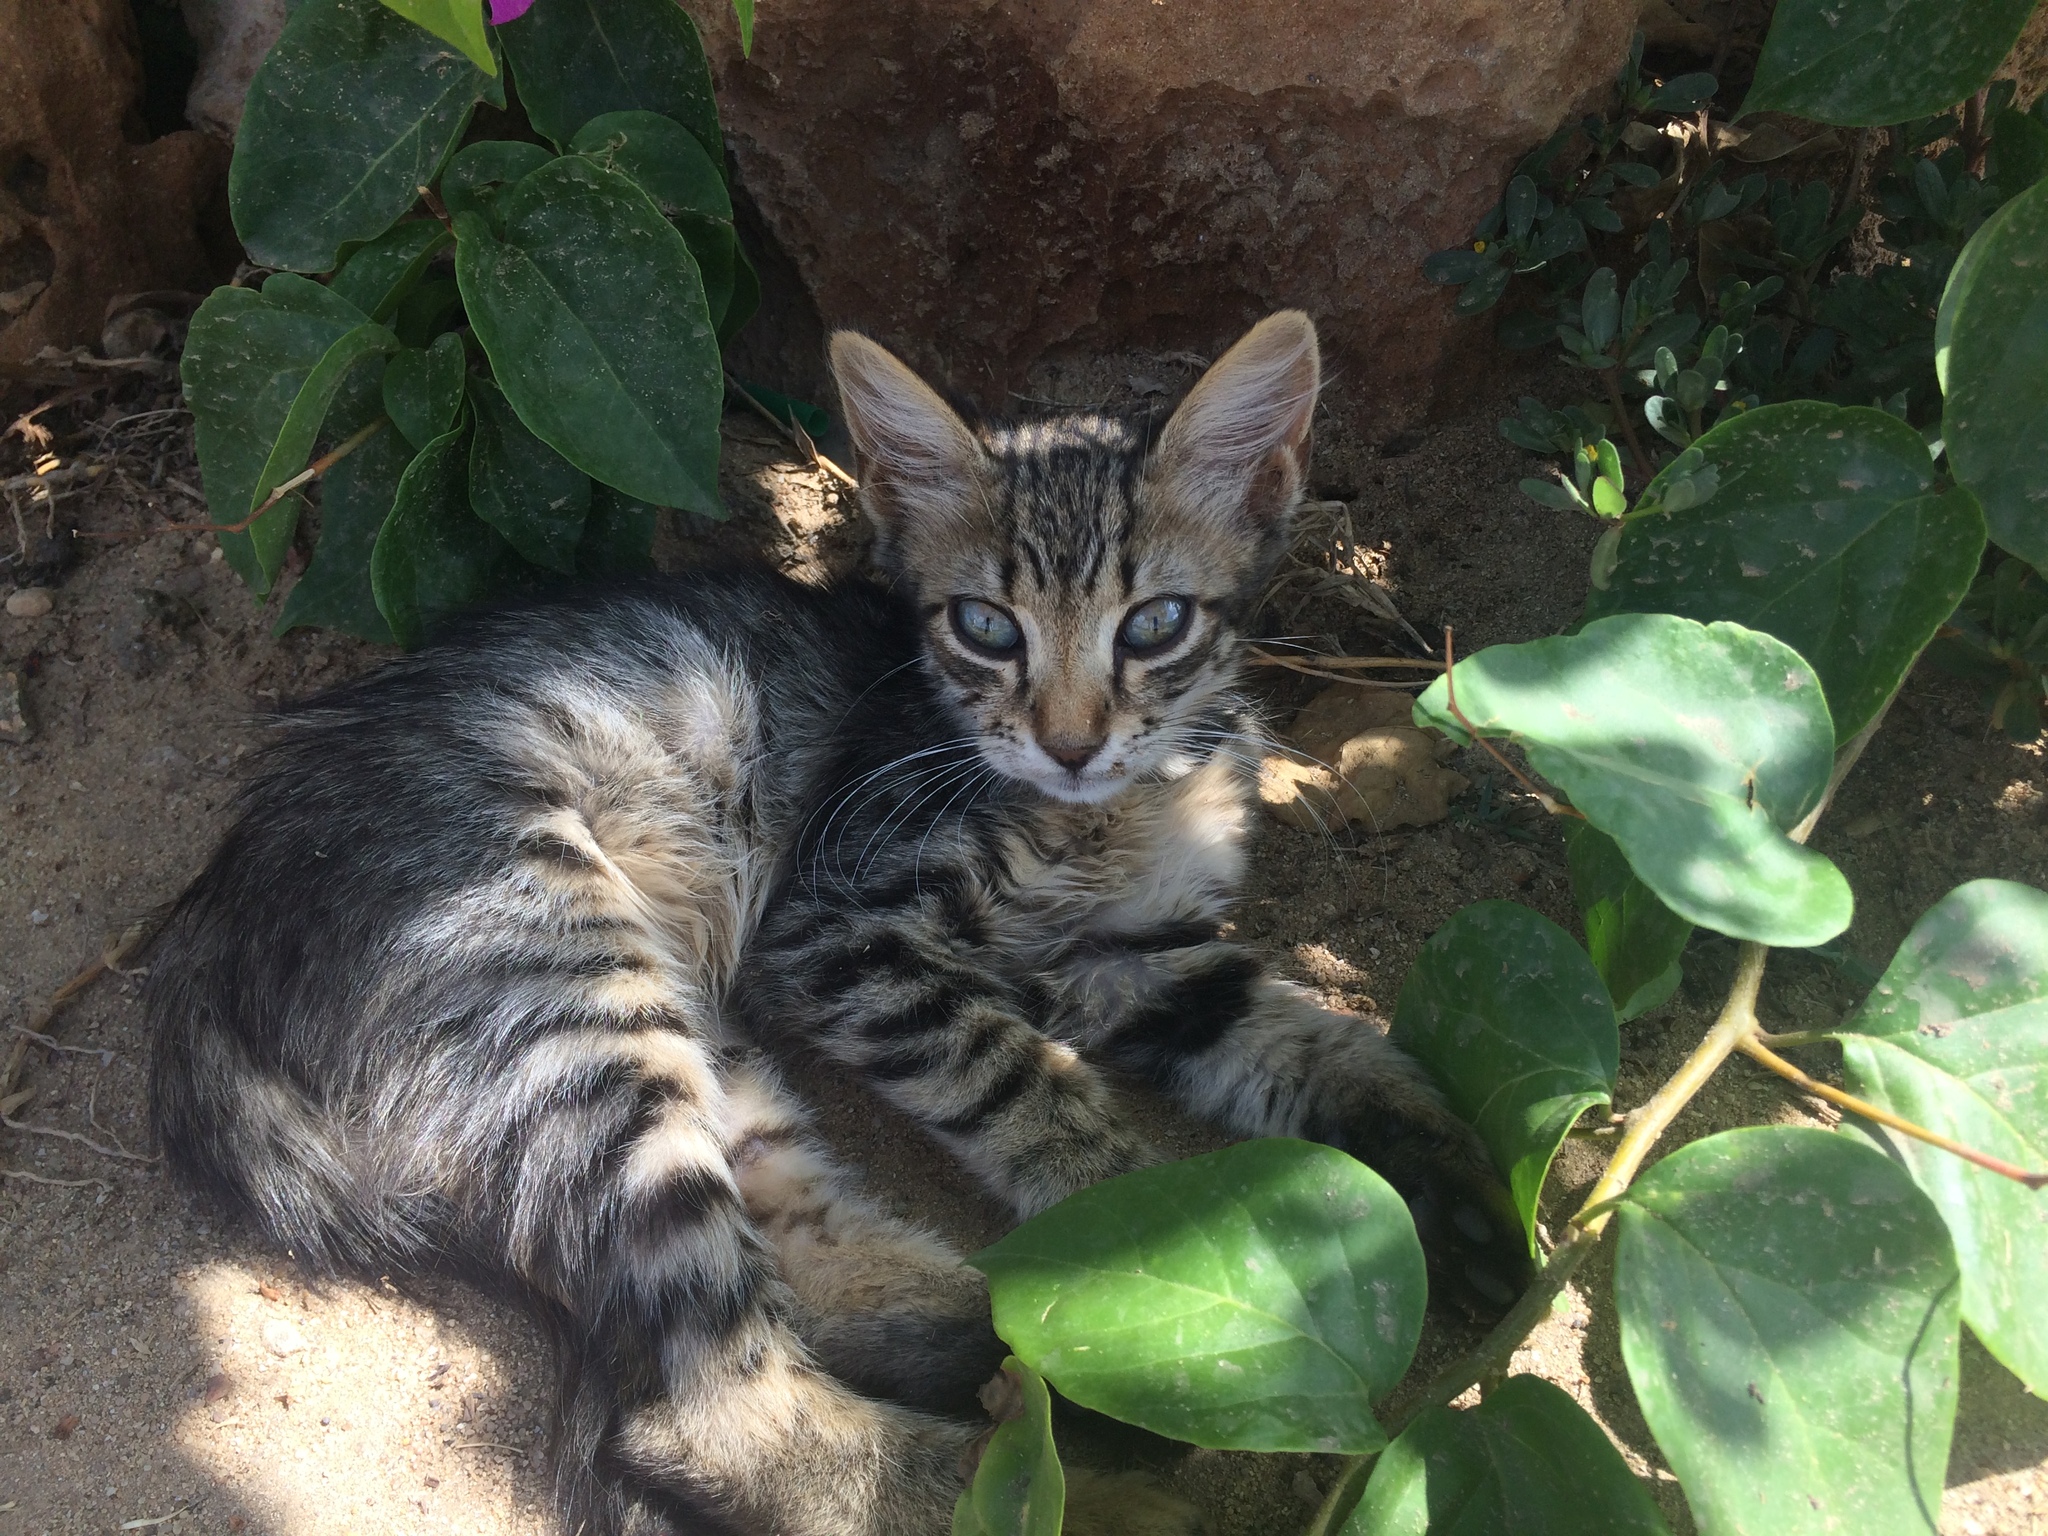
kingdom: Animalia
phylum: Chordata
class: Mammalia
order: Carnivora
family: Felidae
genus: Felis
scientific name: Felis catus
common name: Domestic cat
